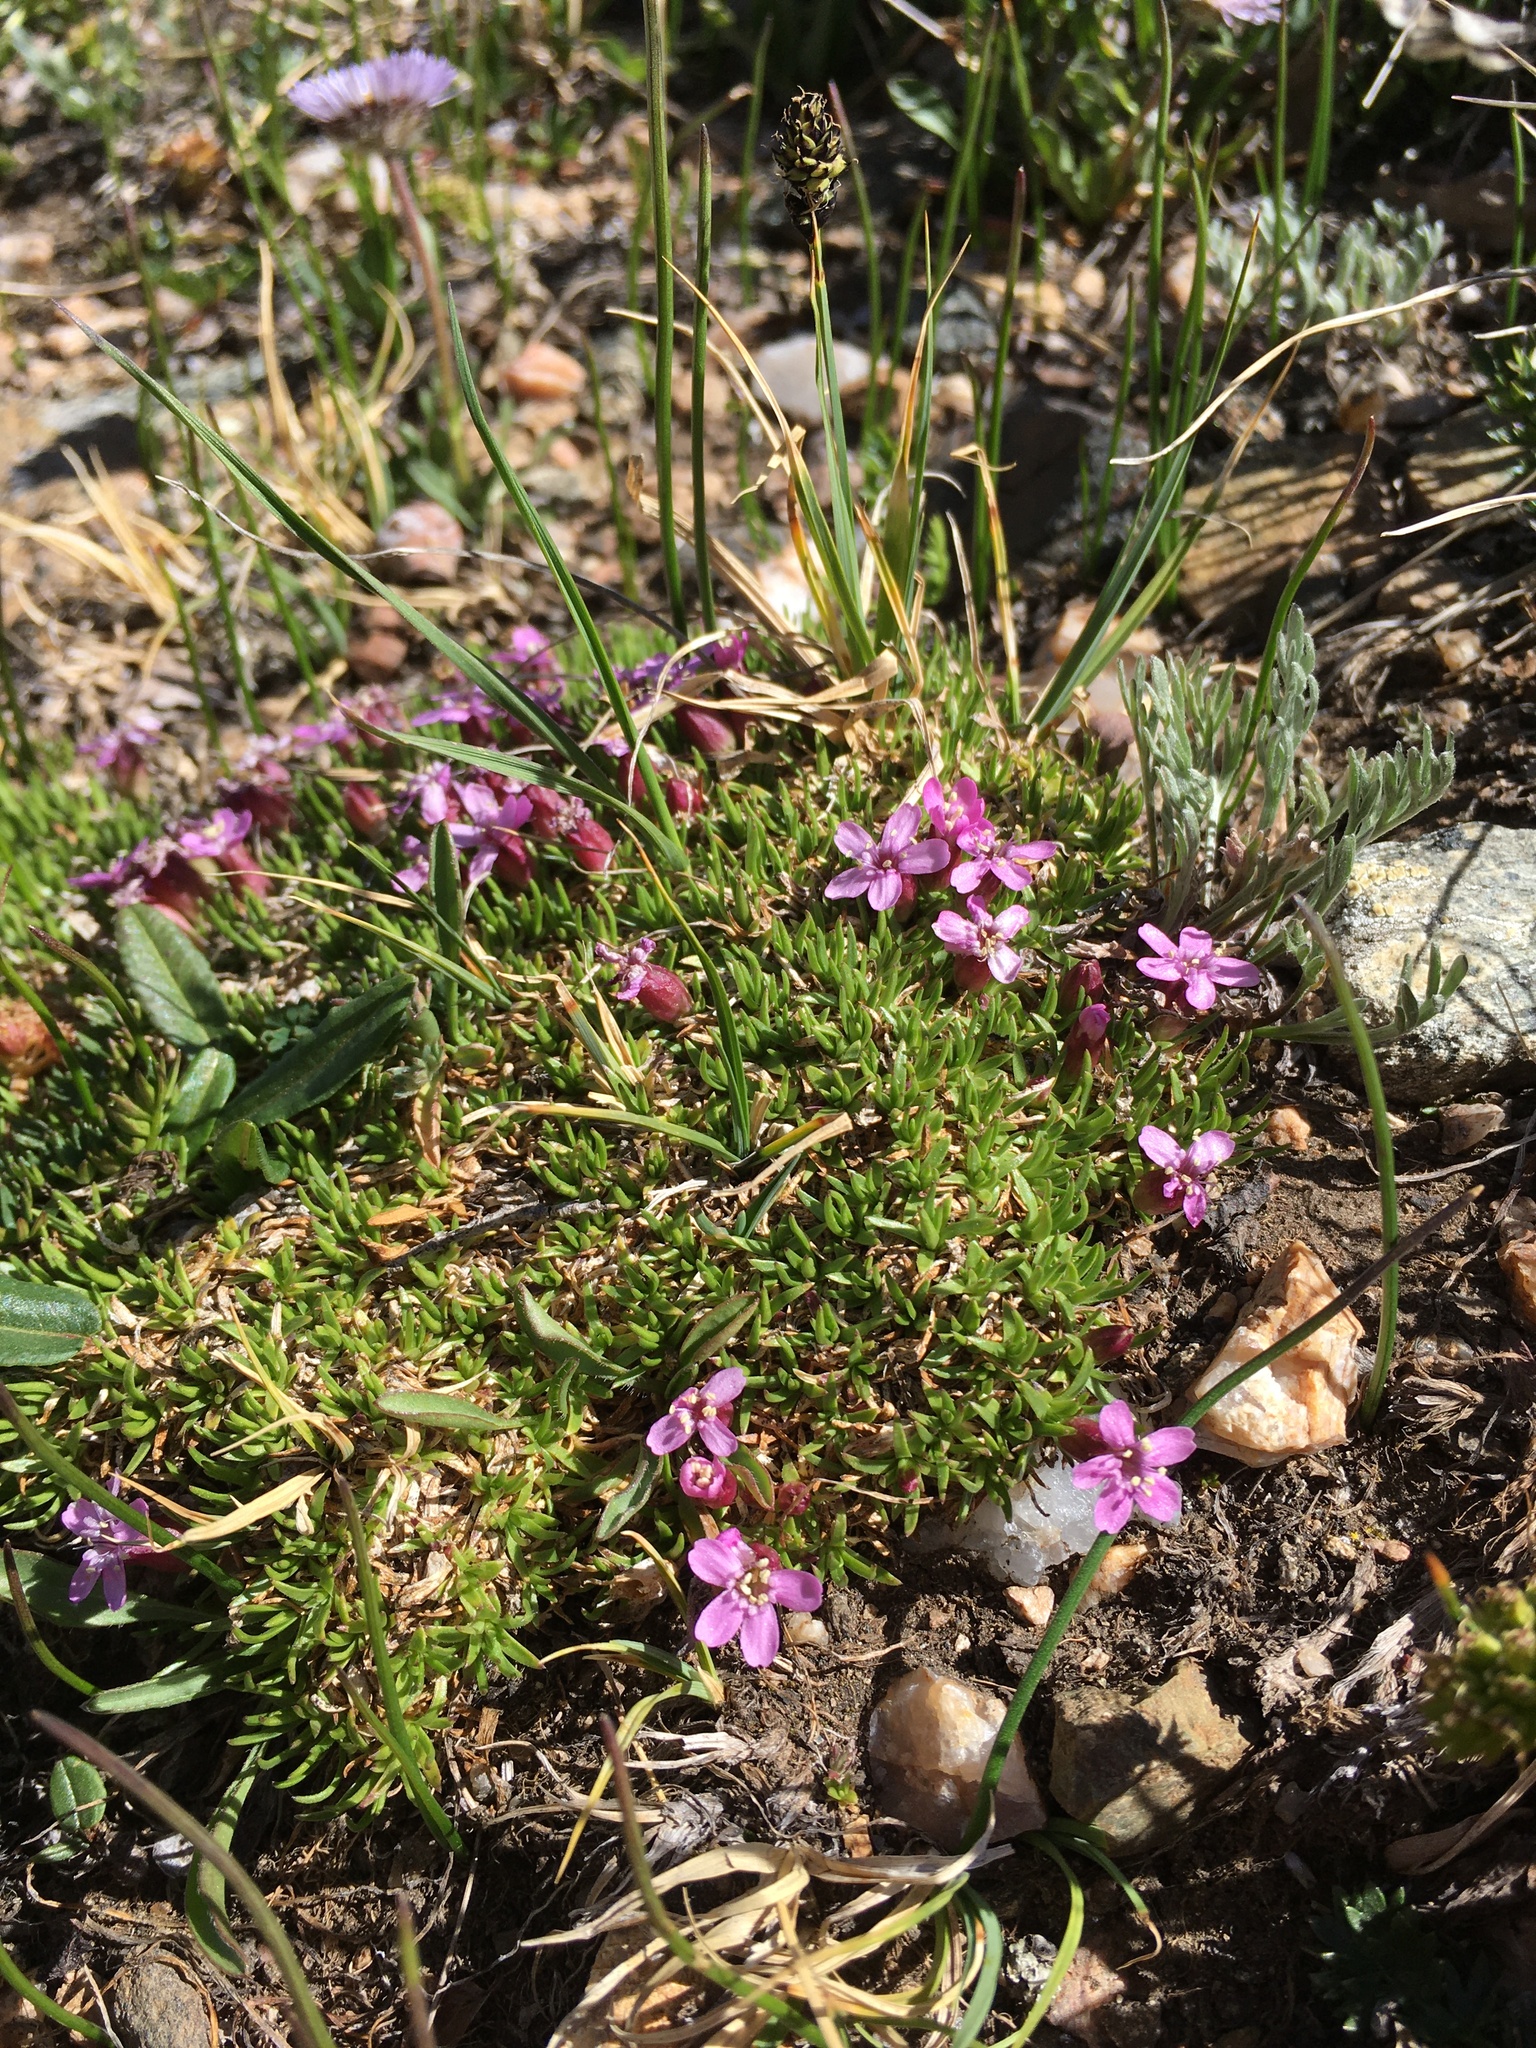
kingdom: Plantae
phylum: Tracheophyta
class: Magnoliopsida
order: Caryophyllales
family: Caryophyllaceae
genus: Silene
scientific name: Silene acaulis
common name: Moss campion
